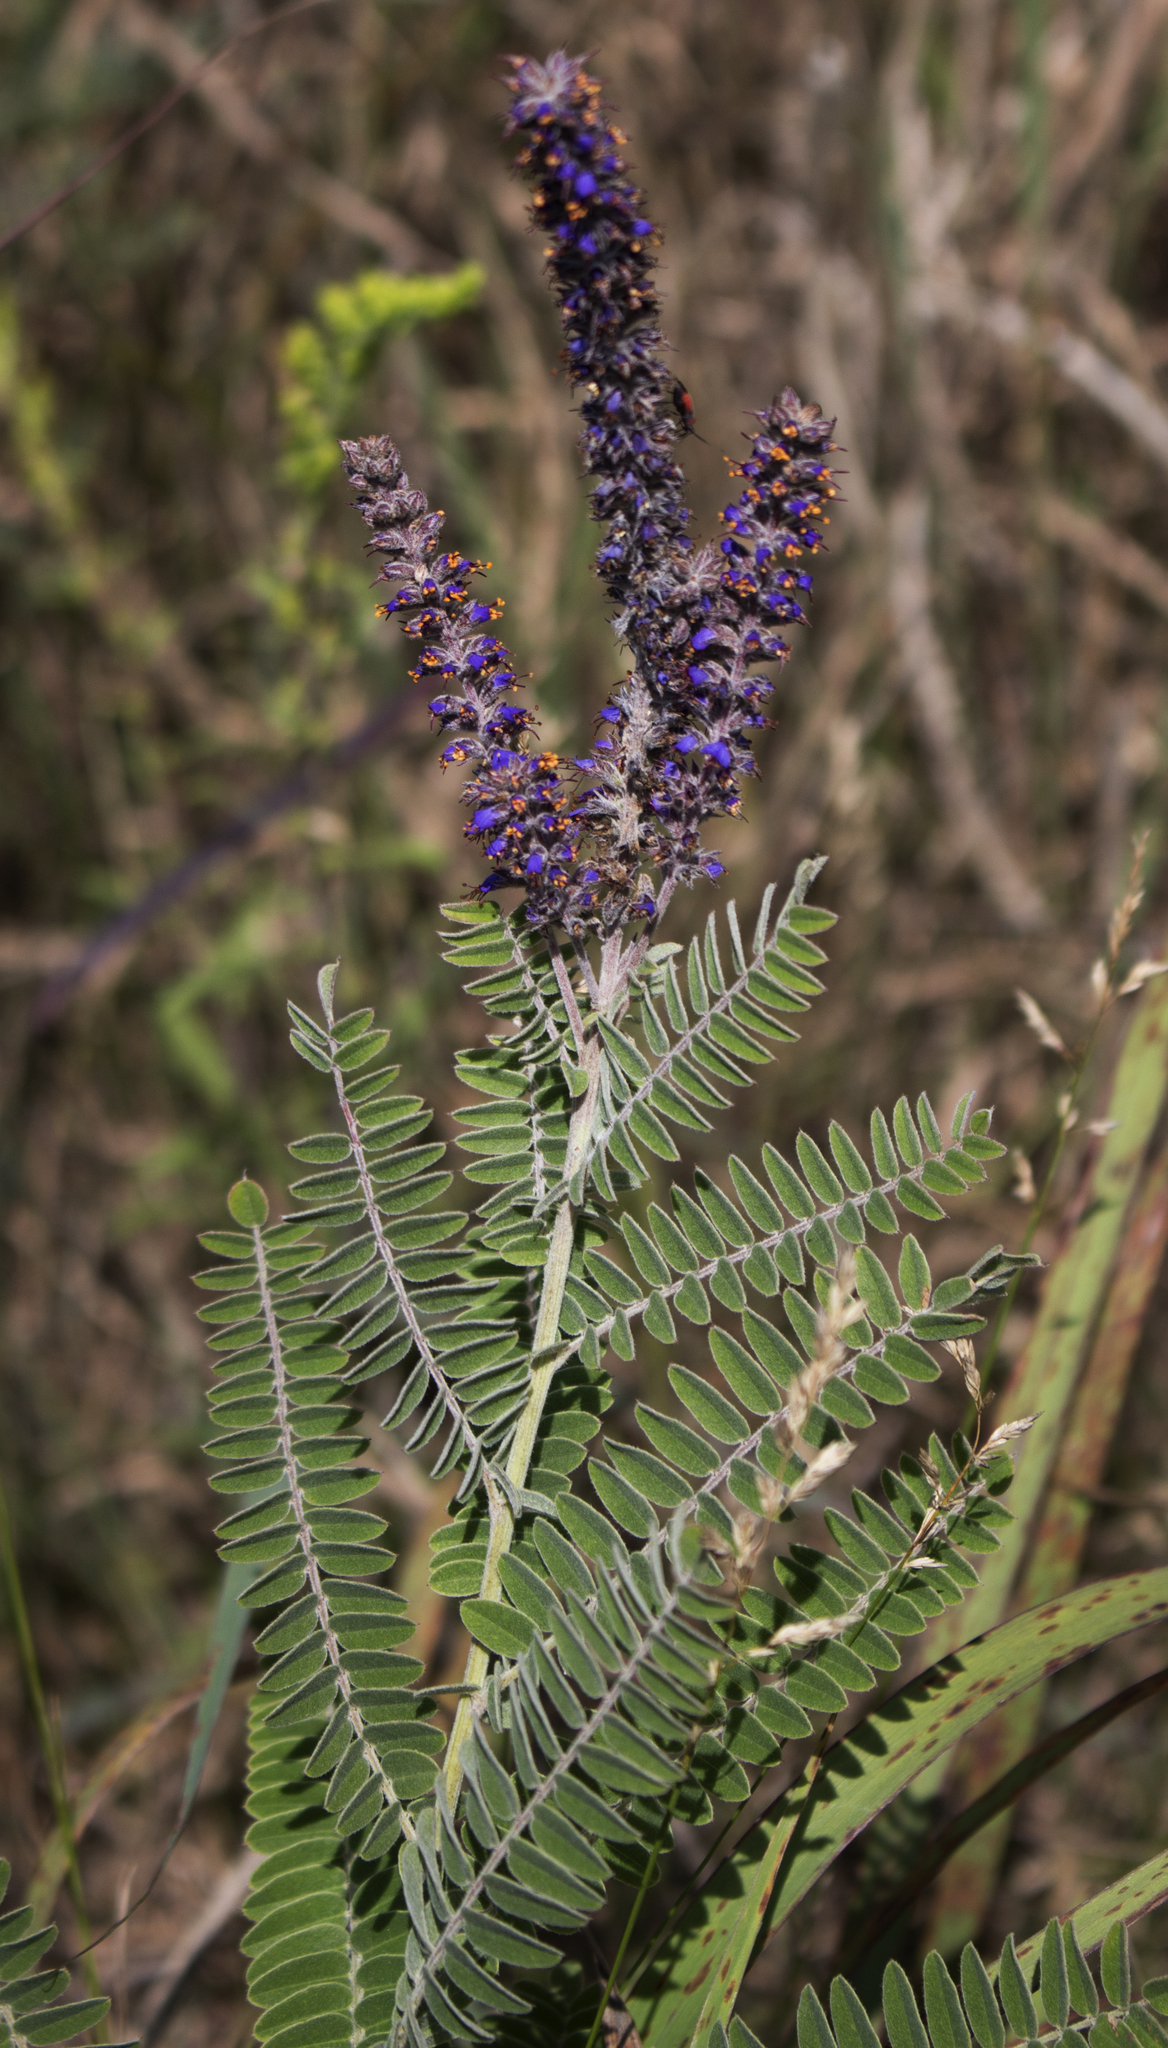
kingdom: Plantae
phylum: Tracheophyta
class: Magnoliopsida
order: Fabales
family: Fabaceae
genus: Amorpha
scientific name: Amorpha canescens
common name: Leadplant
